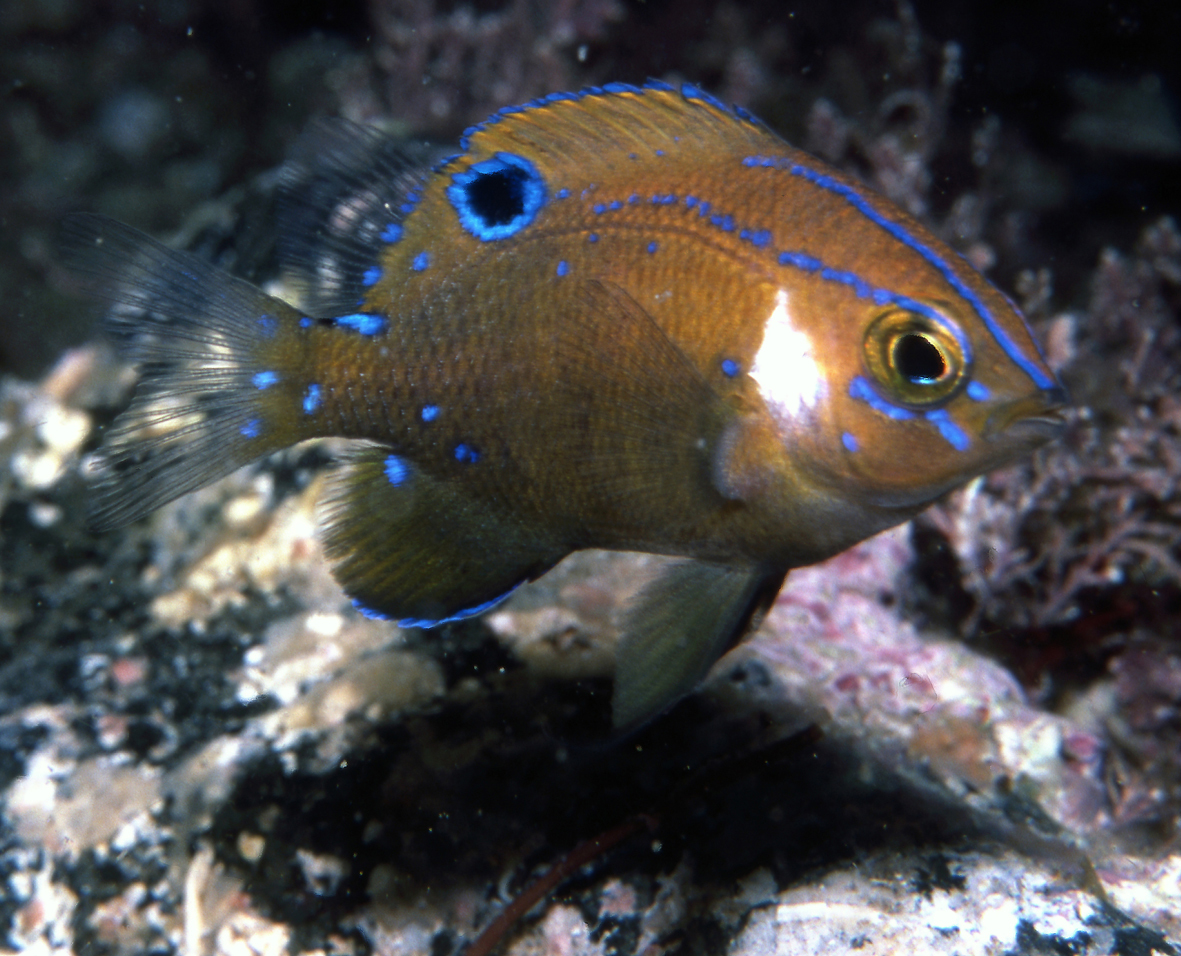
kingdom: Animalia
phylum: Chordata
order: Perciformes
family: Pomacentridae
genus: Parma
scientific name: Parma microlepis
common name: White-ear
